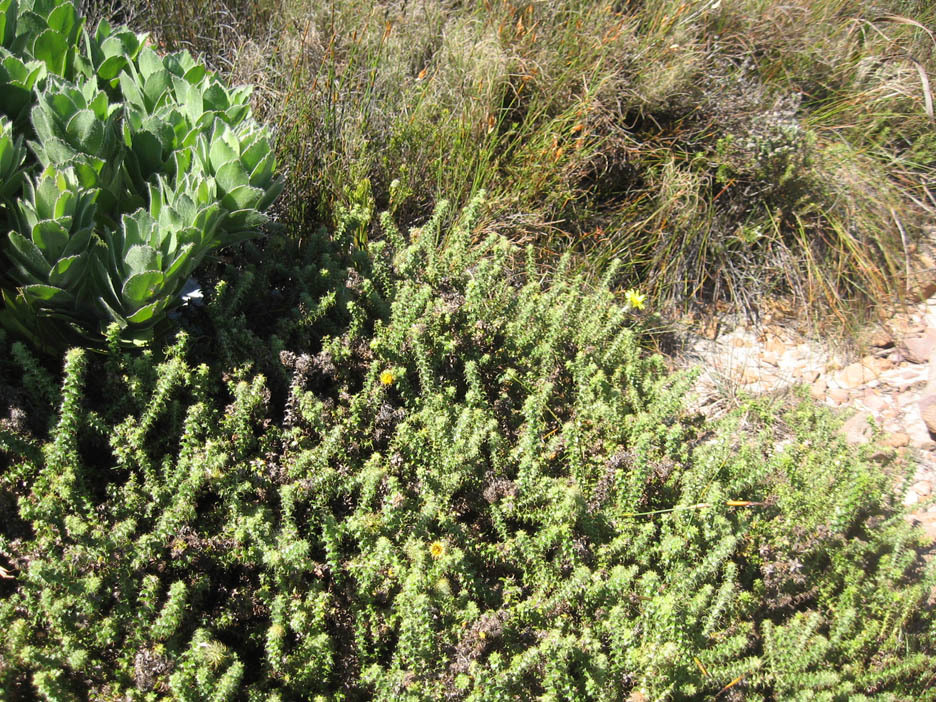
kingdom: Plantae
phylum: Tracheophyta
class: Magnoliopsida
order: Asterales
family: Asteraceae
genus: Cullumia
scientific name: Cullumia setosa
